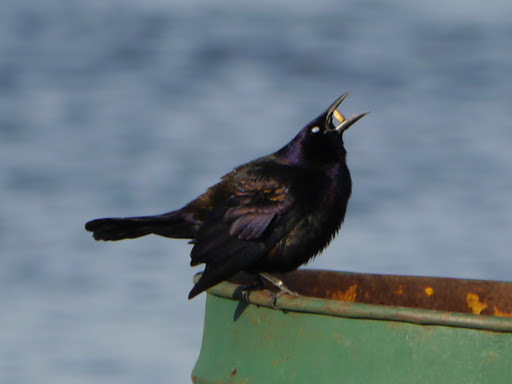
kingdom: Animalia
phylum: Chordata
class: Aves
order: Passeriformes
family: Icteridae
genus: Quiscalus
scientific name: Quiscalus quiscula
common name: Common grackle
